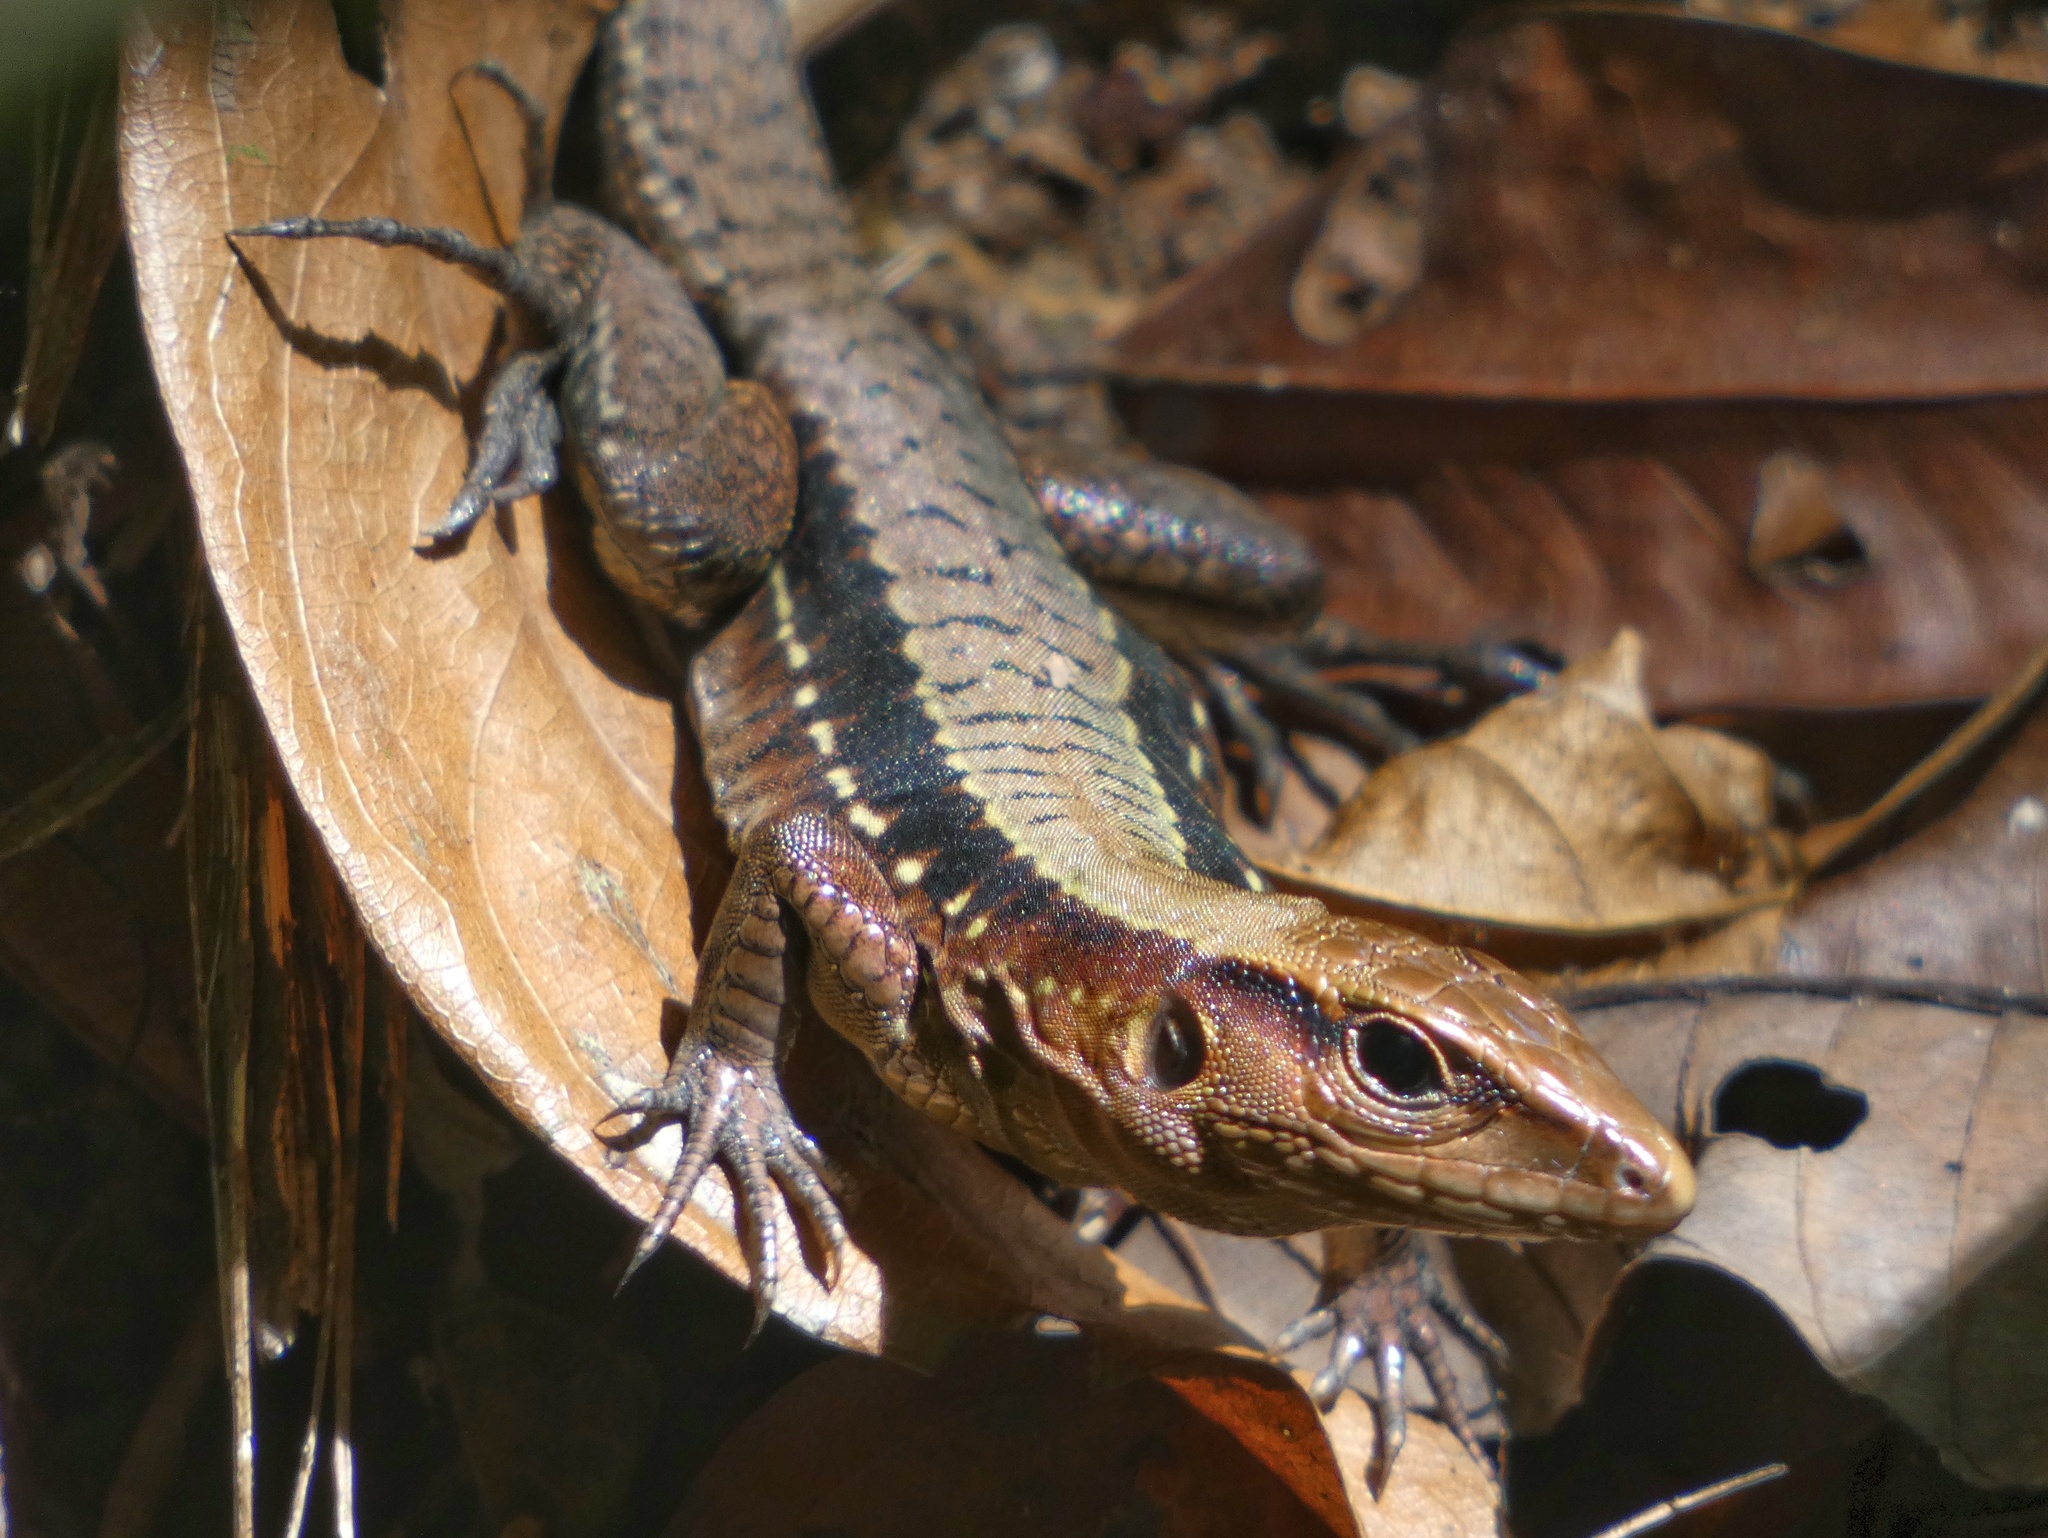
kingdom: Animalia
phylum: Chordata
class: Squamata
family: Teiidae
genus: Holcosus
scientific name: Holcosus leptophrys
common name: Delicate ameiva
